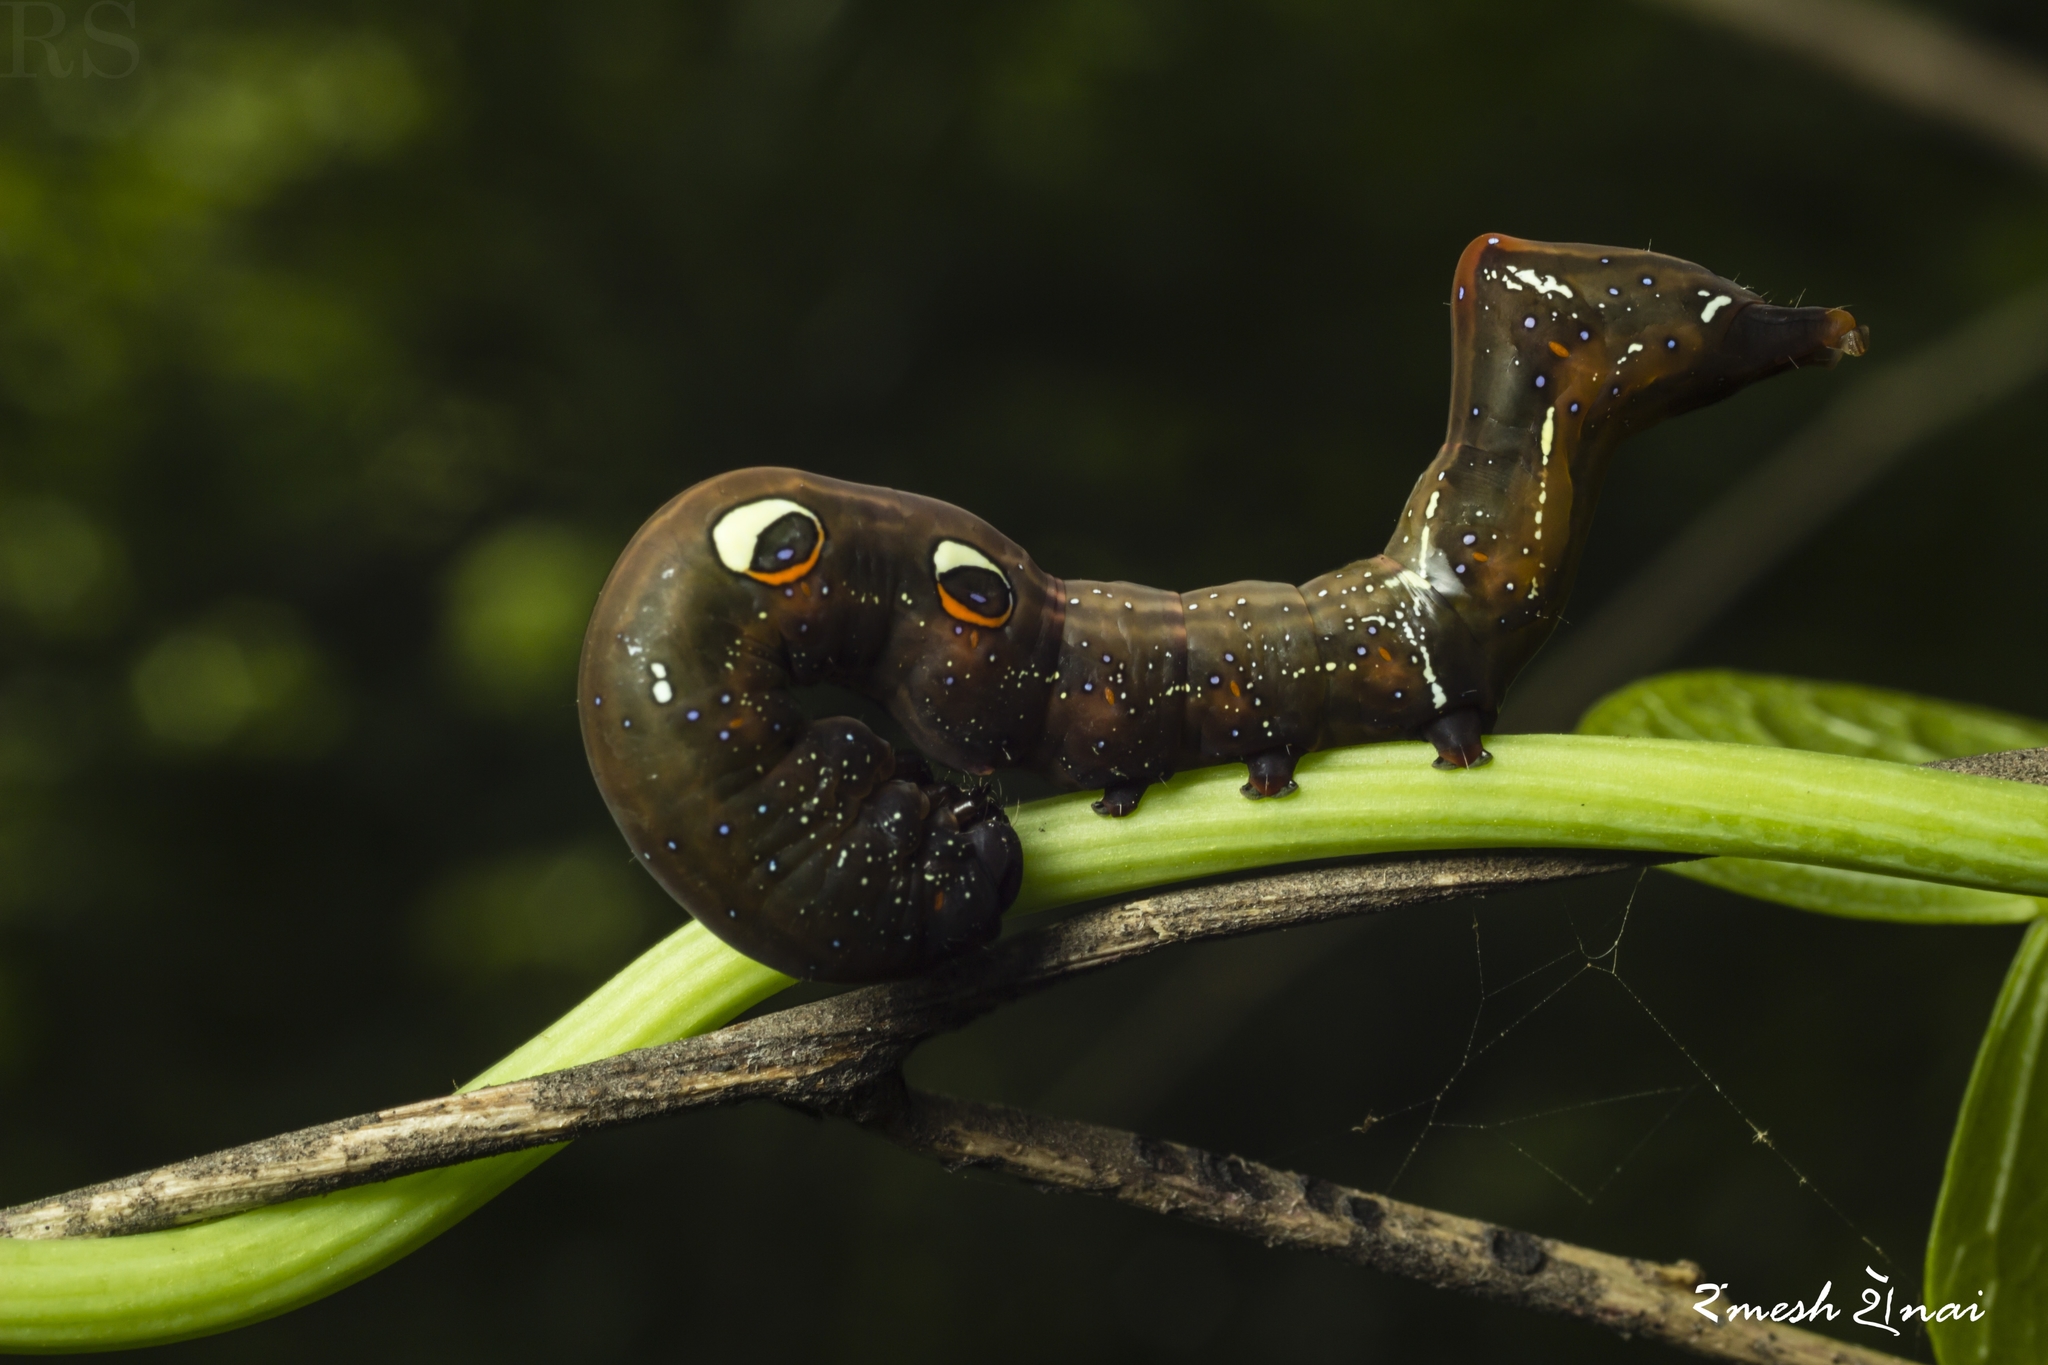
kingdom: Animalia
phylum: Arthropoda
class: Insecta
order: Lepidoptera
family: Erebidae
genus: Eudocima
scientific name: Eudocima phalonia
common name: Wasp
